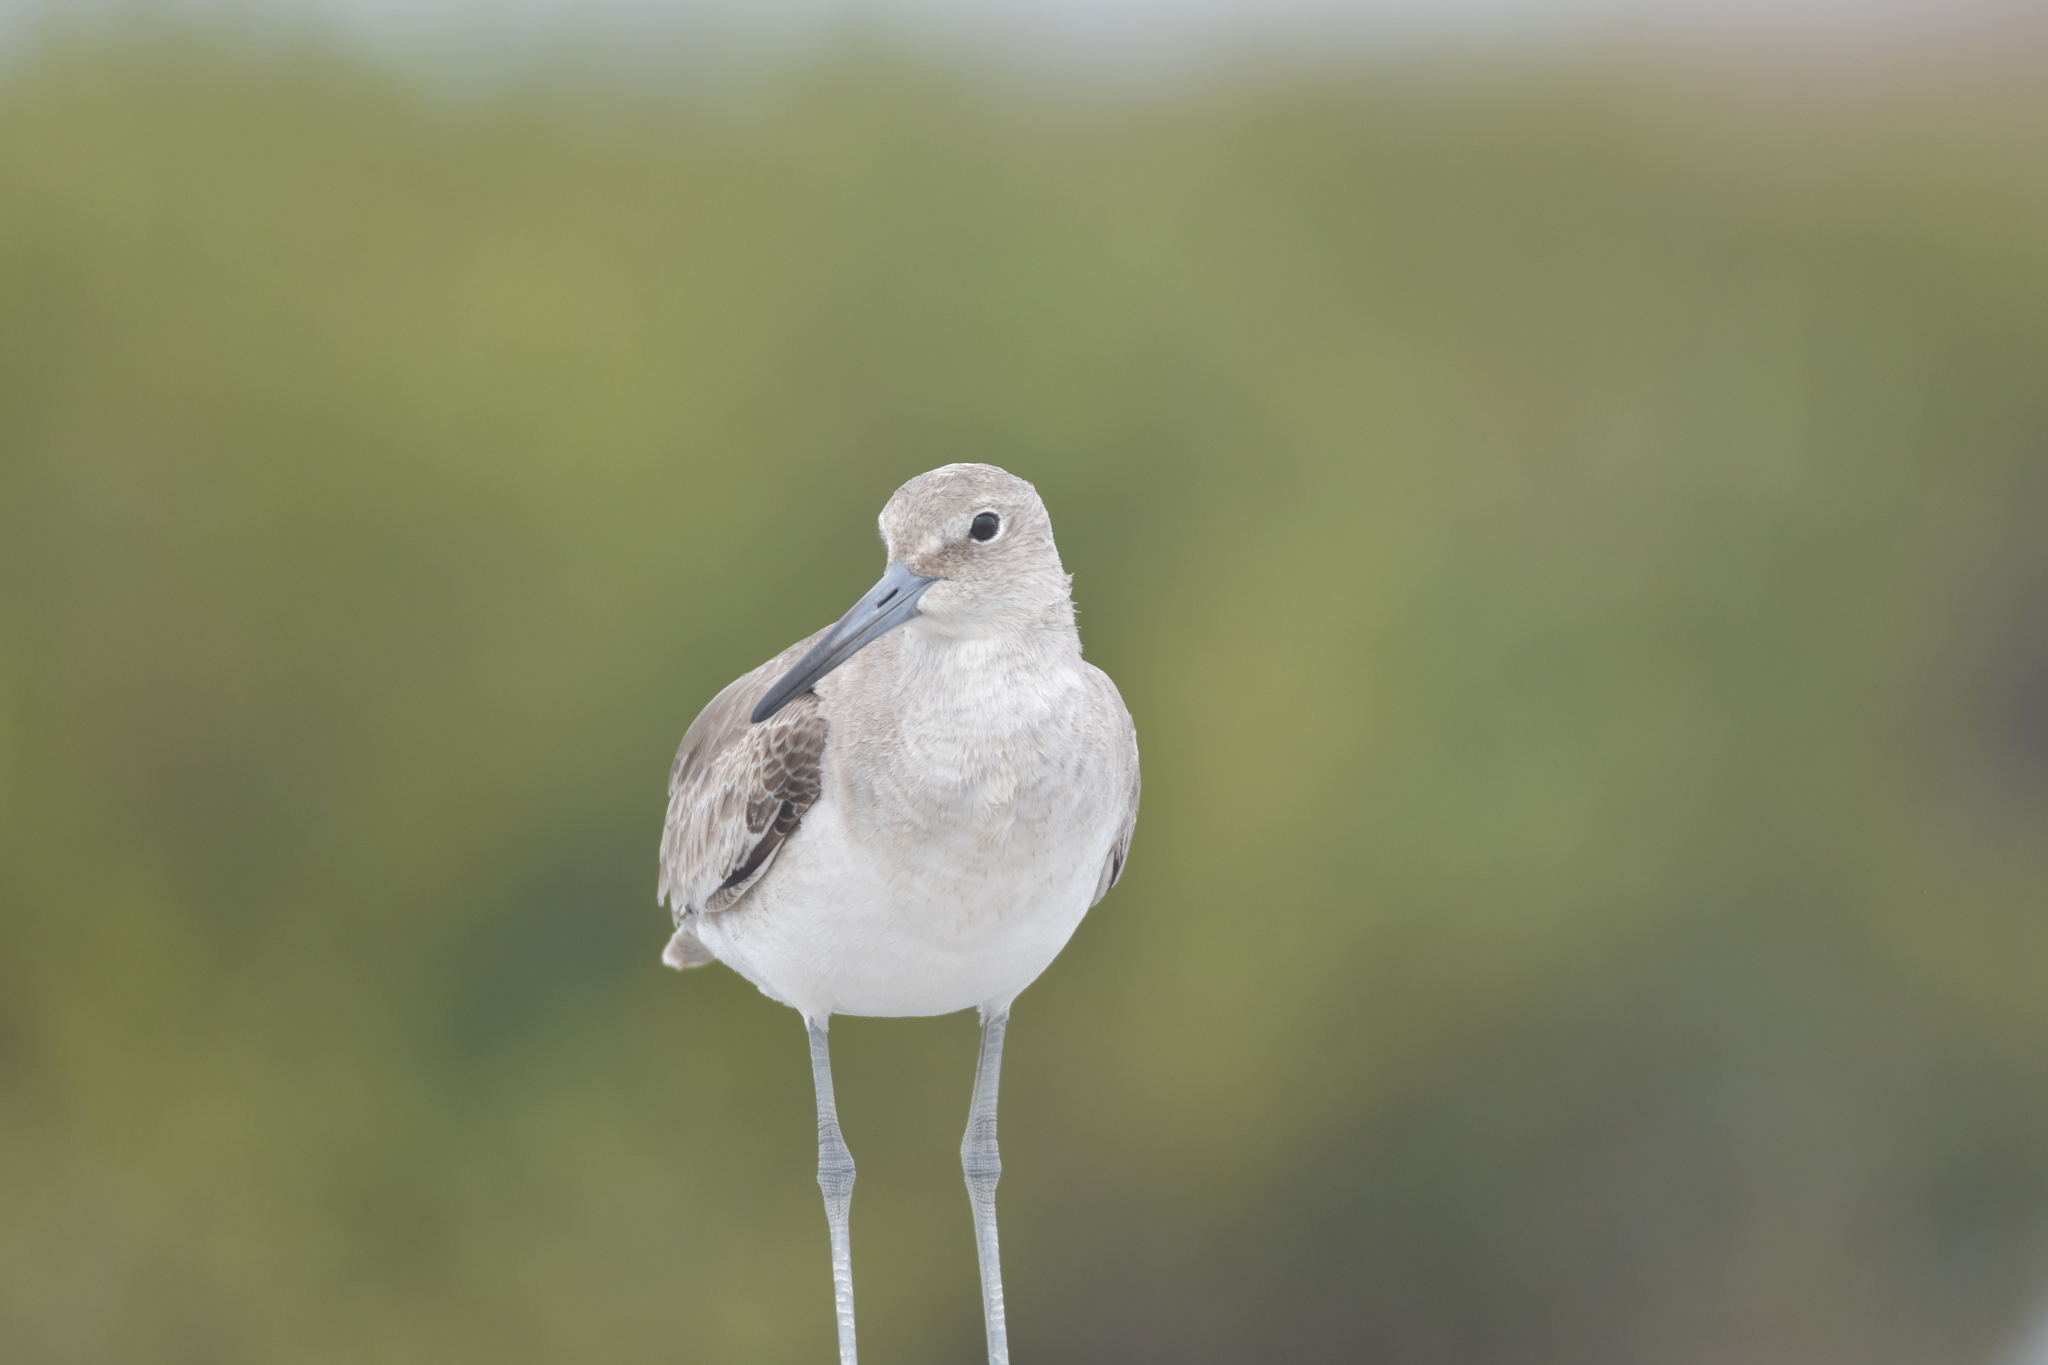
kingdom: Animalia
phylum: Chordata
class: Aves
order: Charadriiformes
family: Scolopacidae
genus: Tringa
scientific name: Tringa semipalmata
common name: Willet
